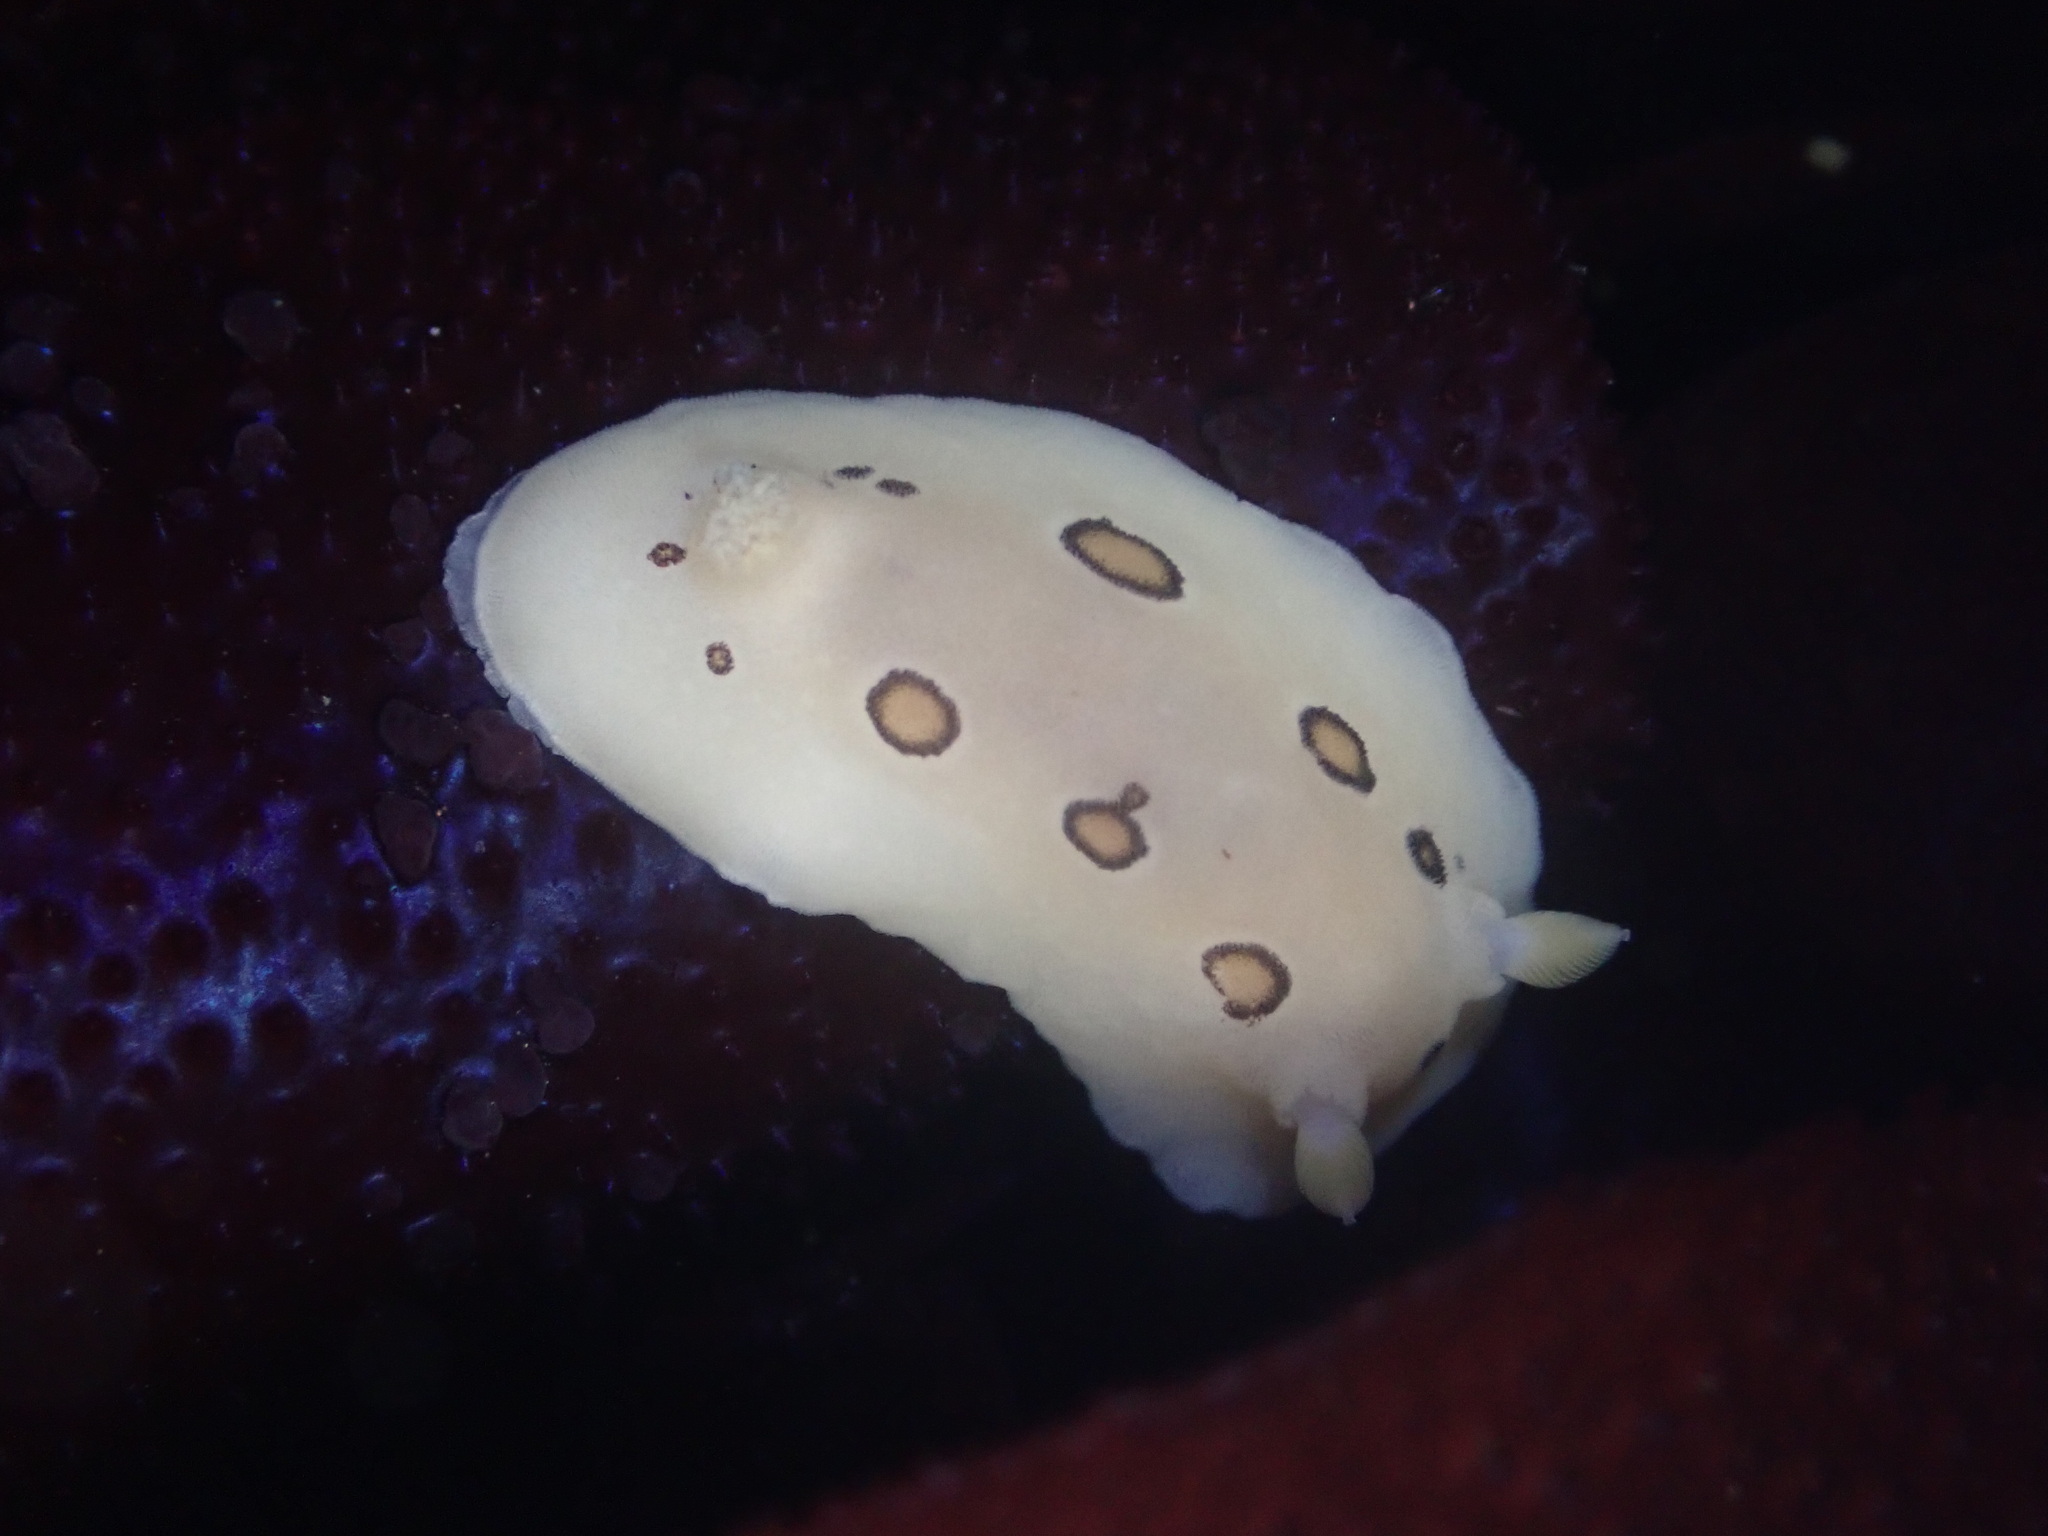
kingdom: Animalia
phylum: Mollusca
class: Gastropoda
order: Nudibranchia
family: Discodorididae
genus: Diaulula
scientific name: Diaulula sandiegensis
